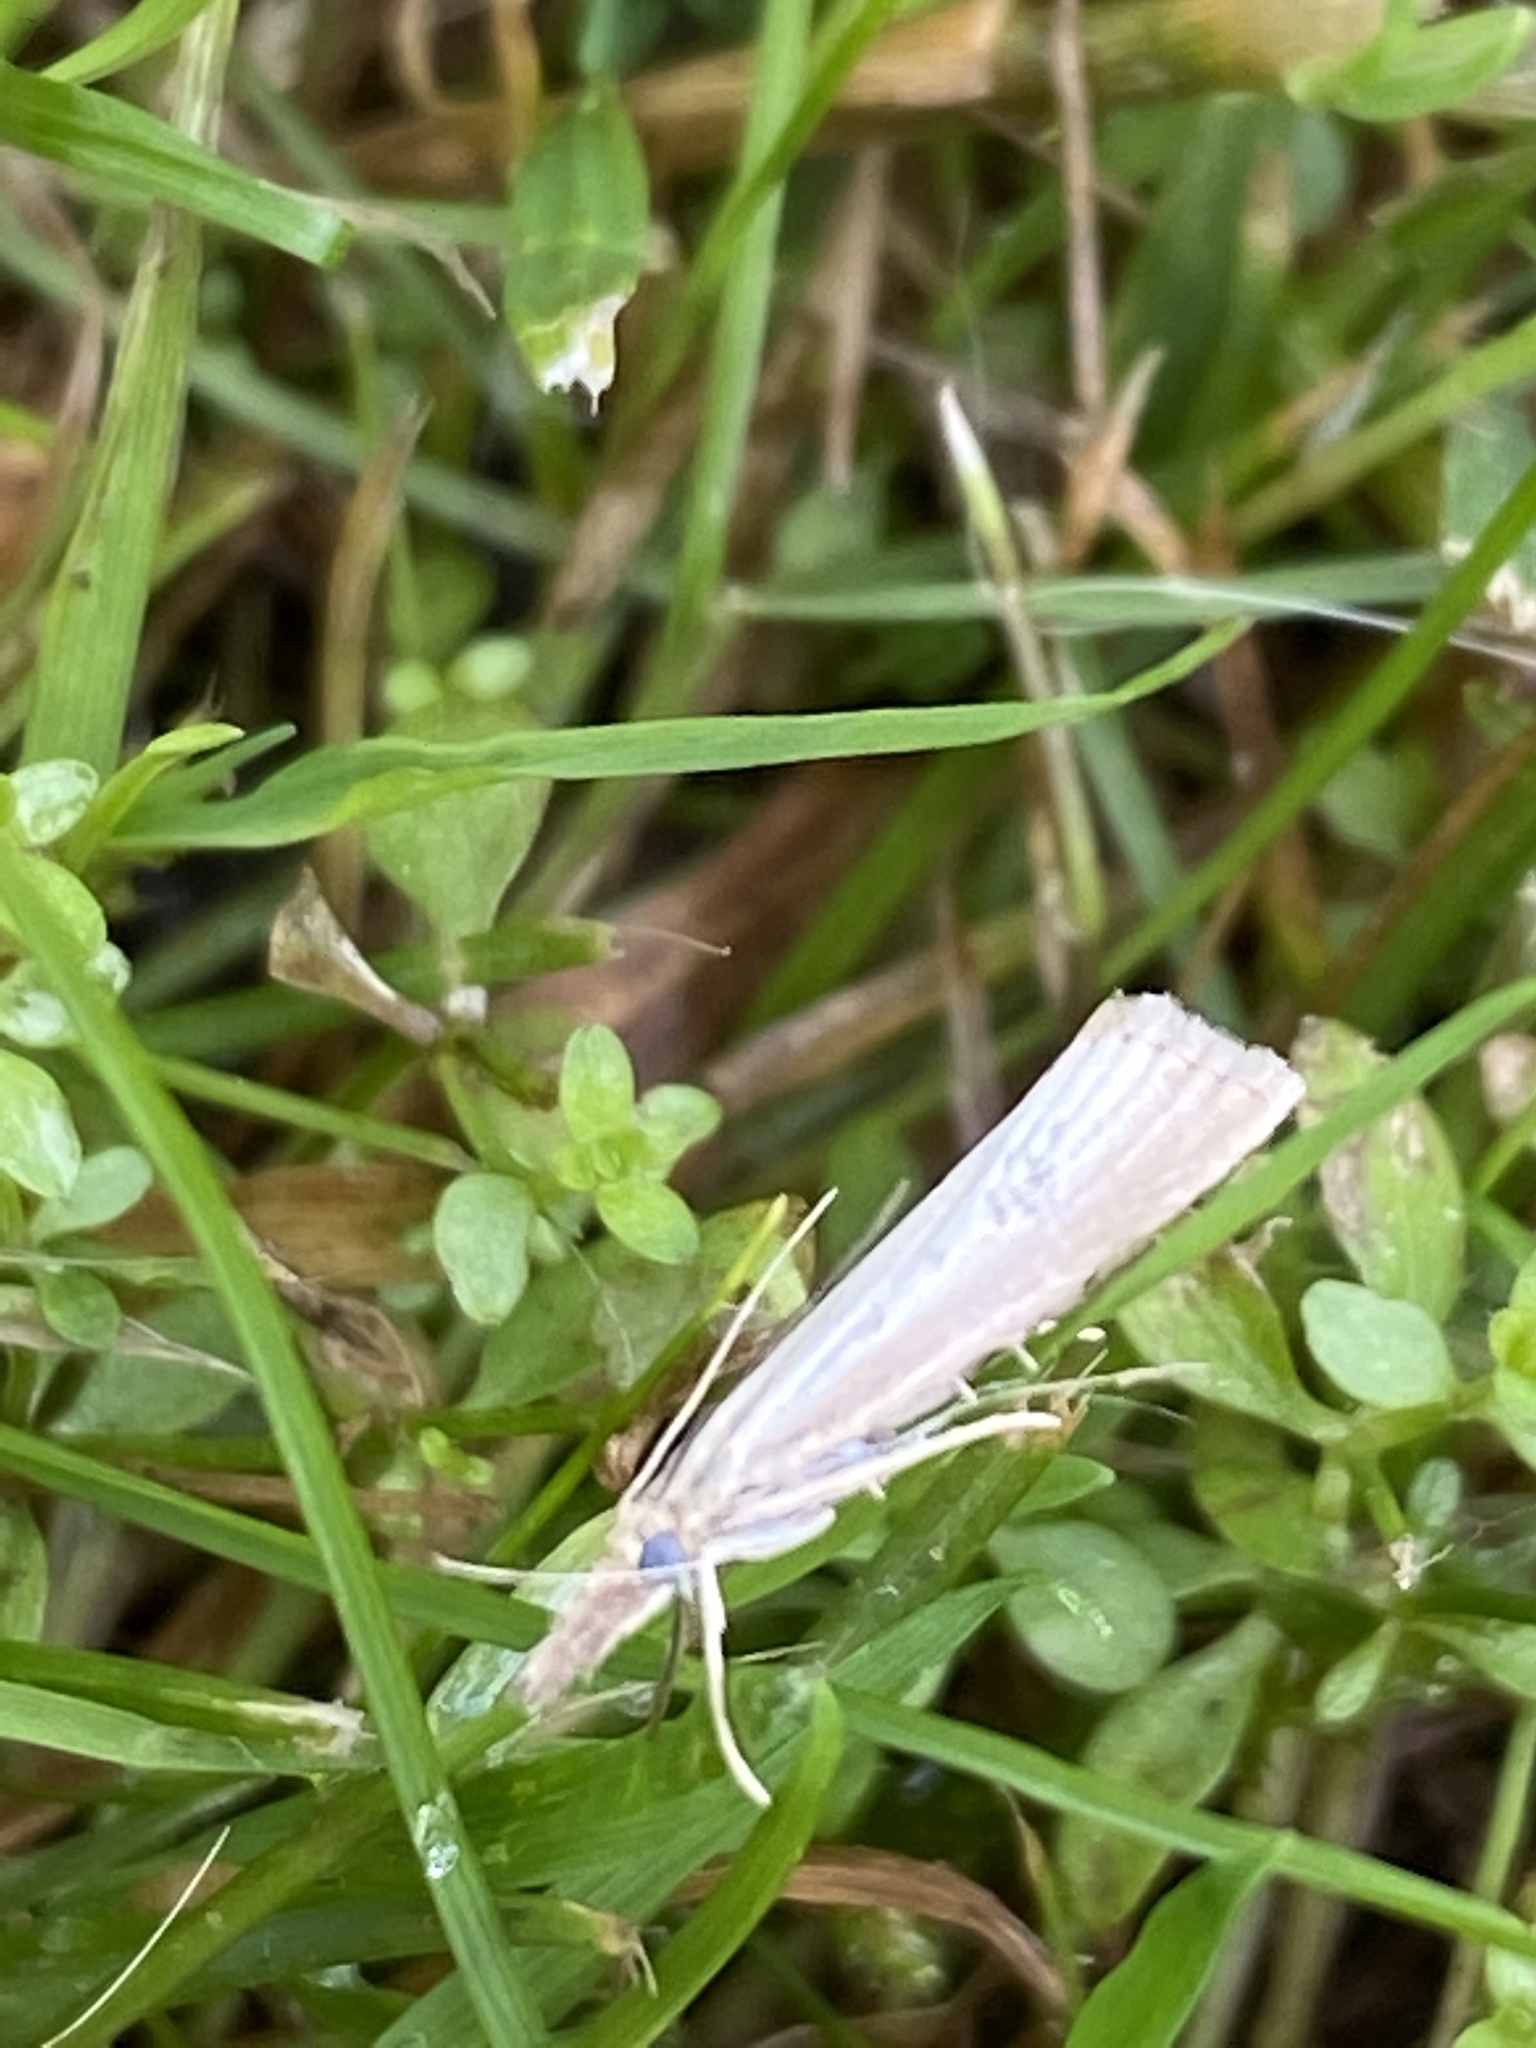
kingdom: Animalia
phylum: Arthropoda
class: Insecta
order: Lepidoptera
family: Crambidae
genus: Agriphila
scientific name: Agriphila straminella
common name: Straw grass-veneer
